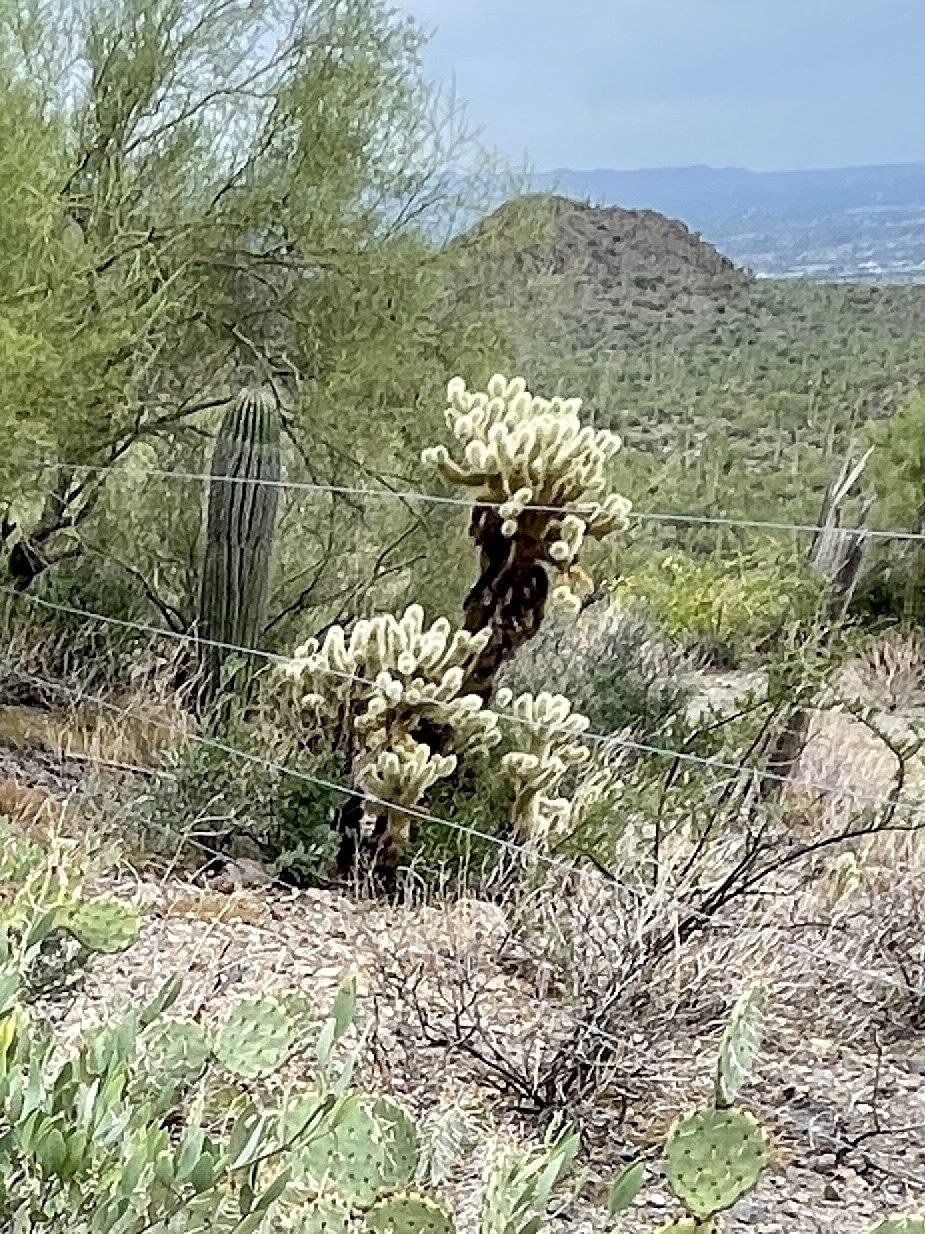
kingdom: Plantae
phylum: Tracheophyta
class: Magnoliopsida
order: Caryophyllales
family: Cactaceae
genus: Cylindropuntia
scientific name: Cylindropuntia fosbergii
